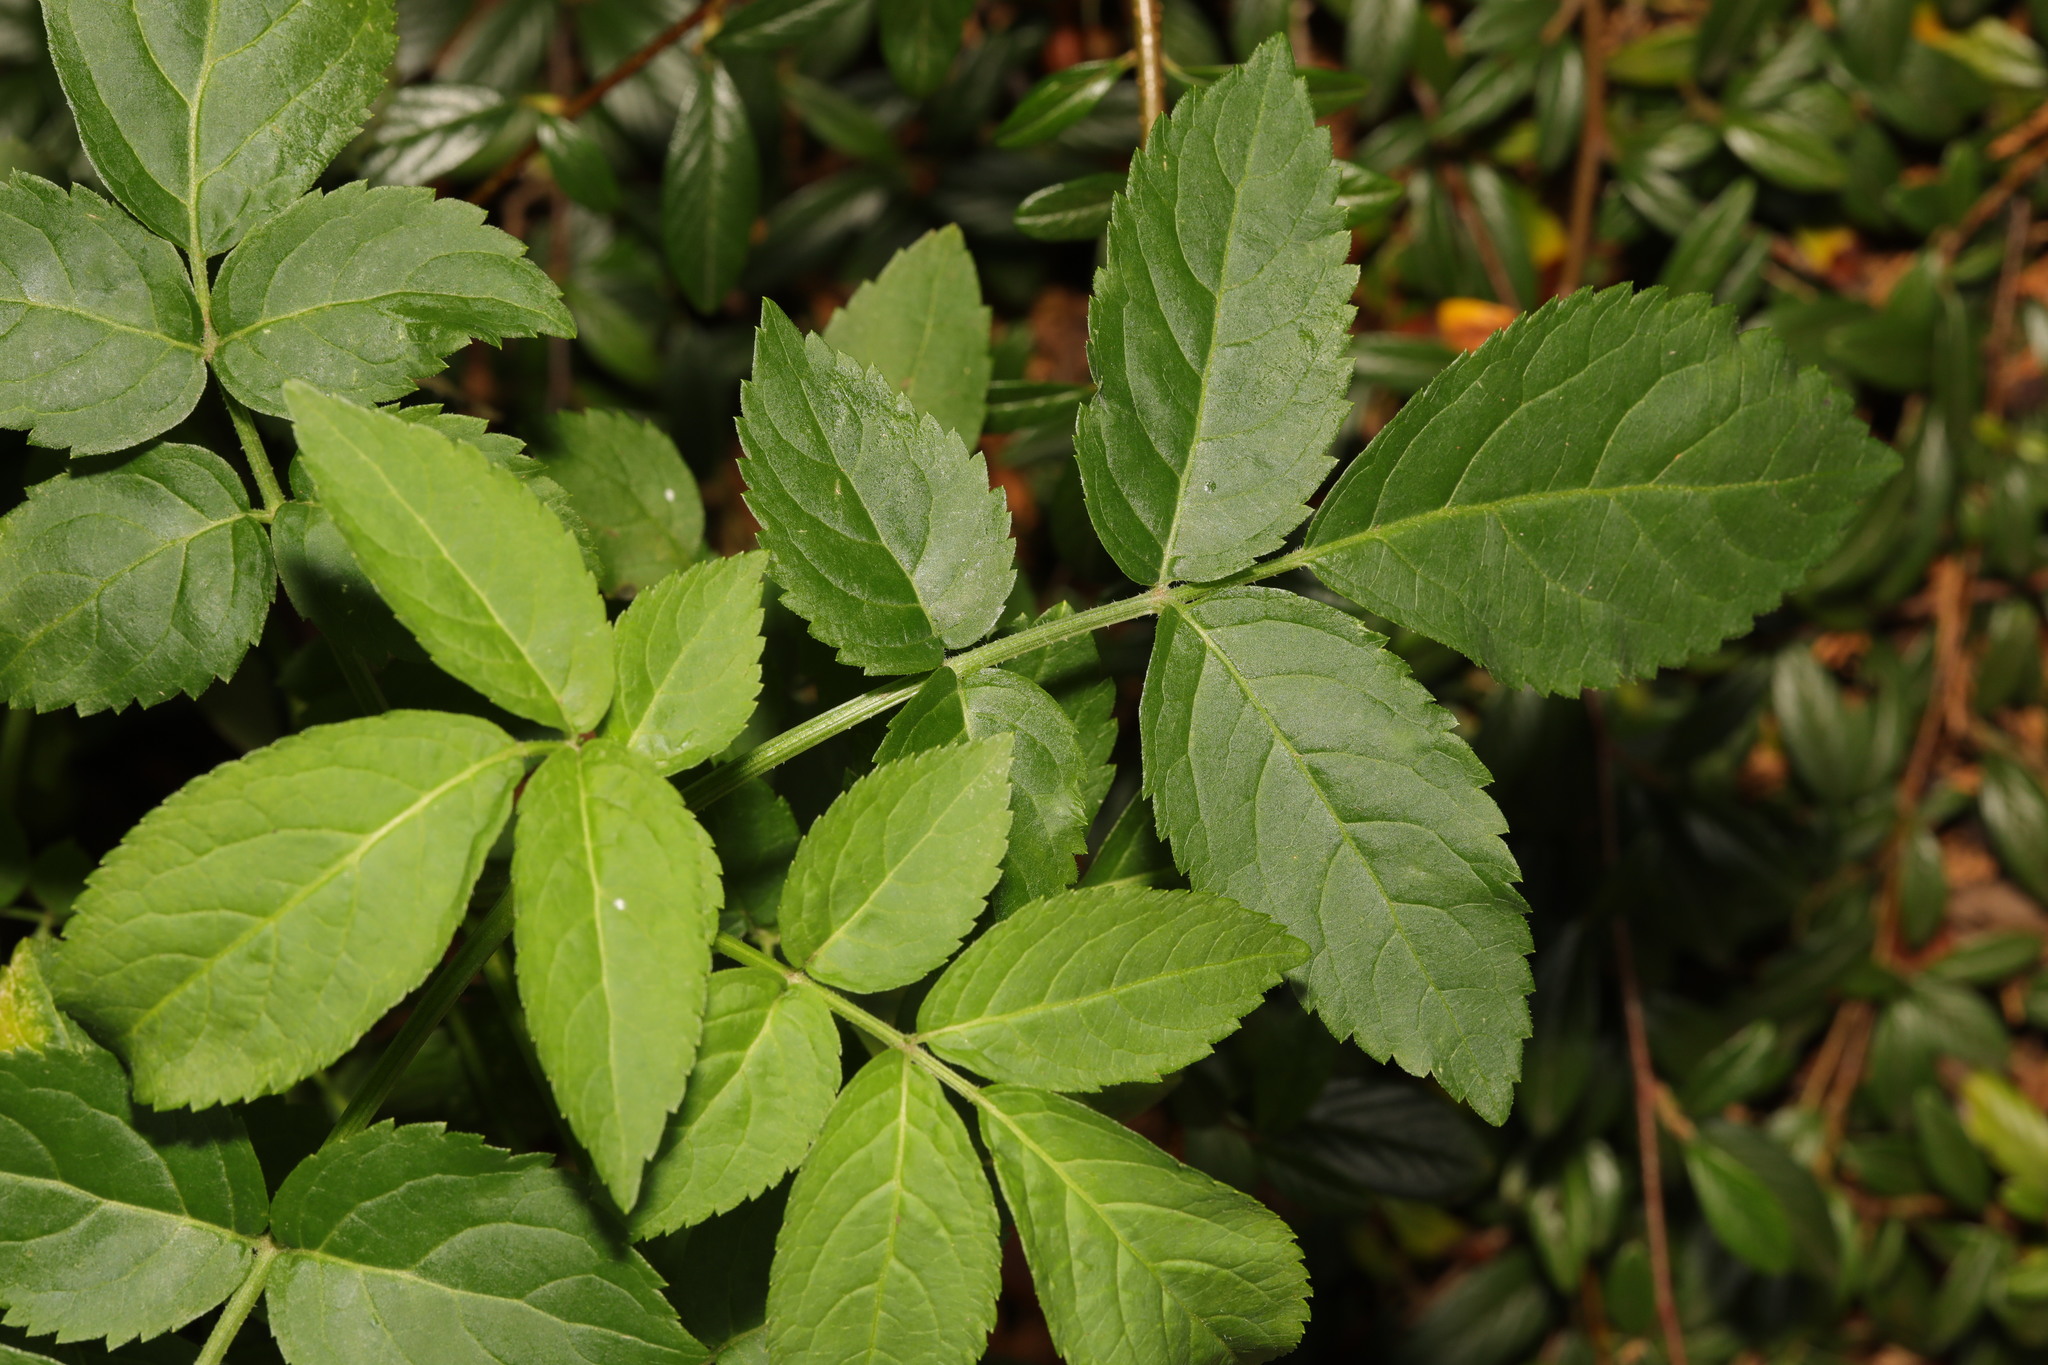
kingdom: Plantae
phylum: Tracheophyta
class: Magnoliopsida
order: Dipsacales
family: Viburnaceae
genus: Sambucus
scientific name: Sambucus nigra
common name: Elder
